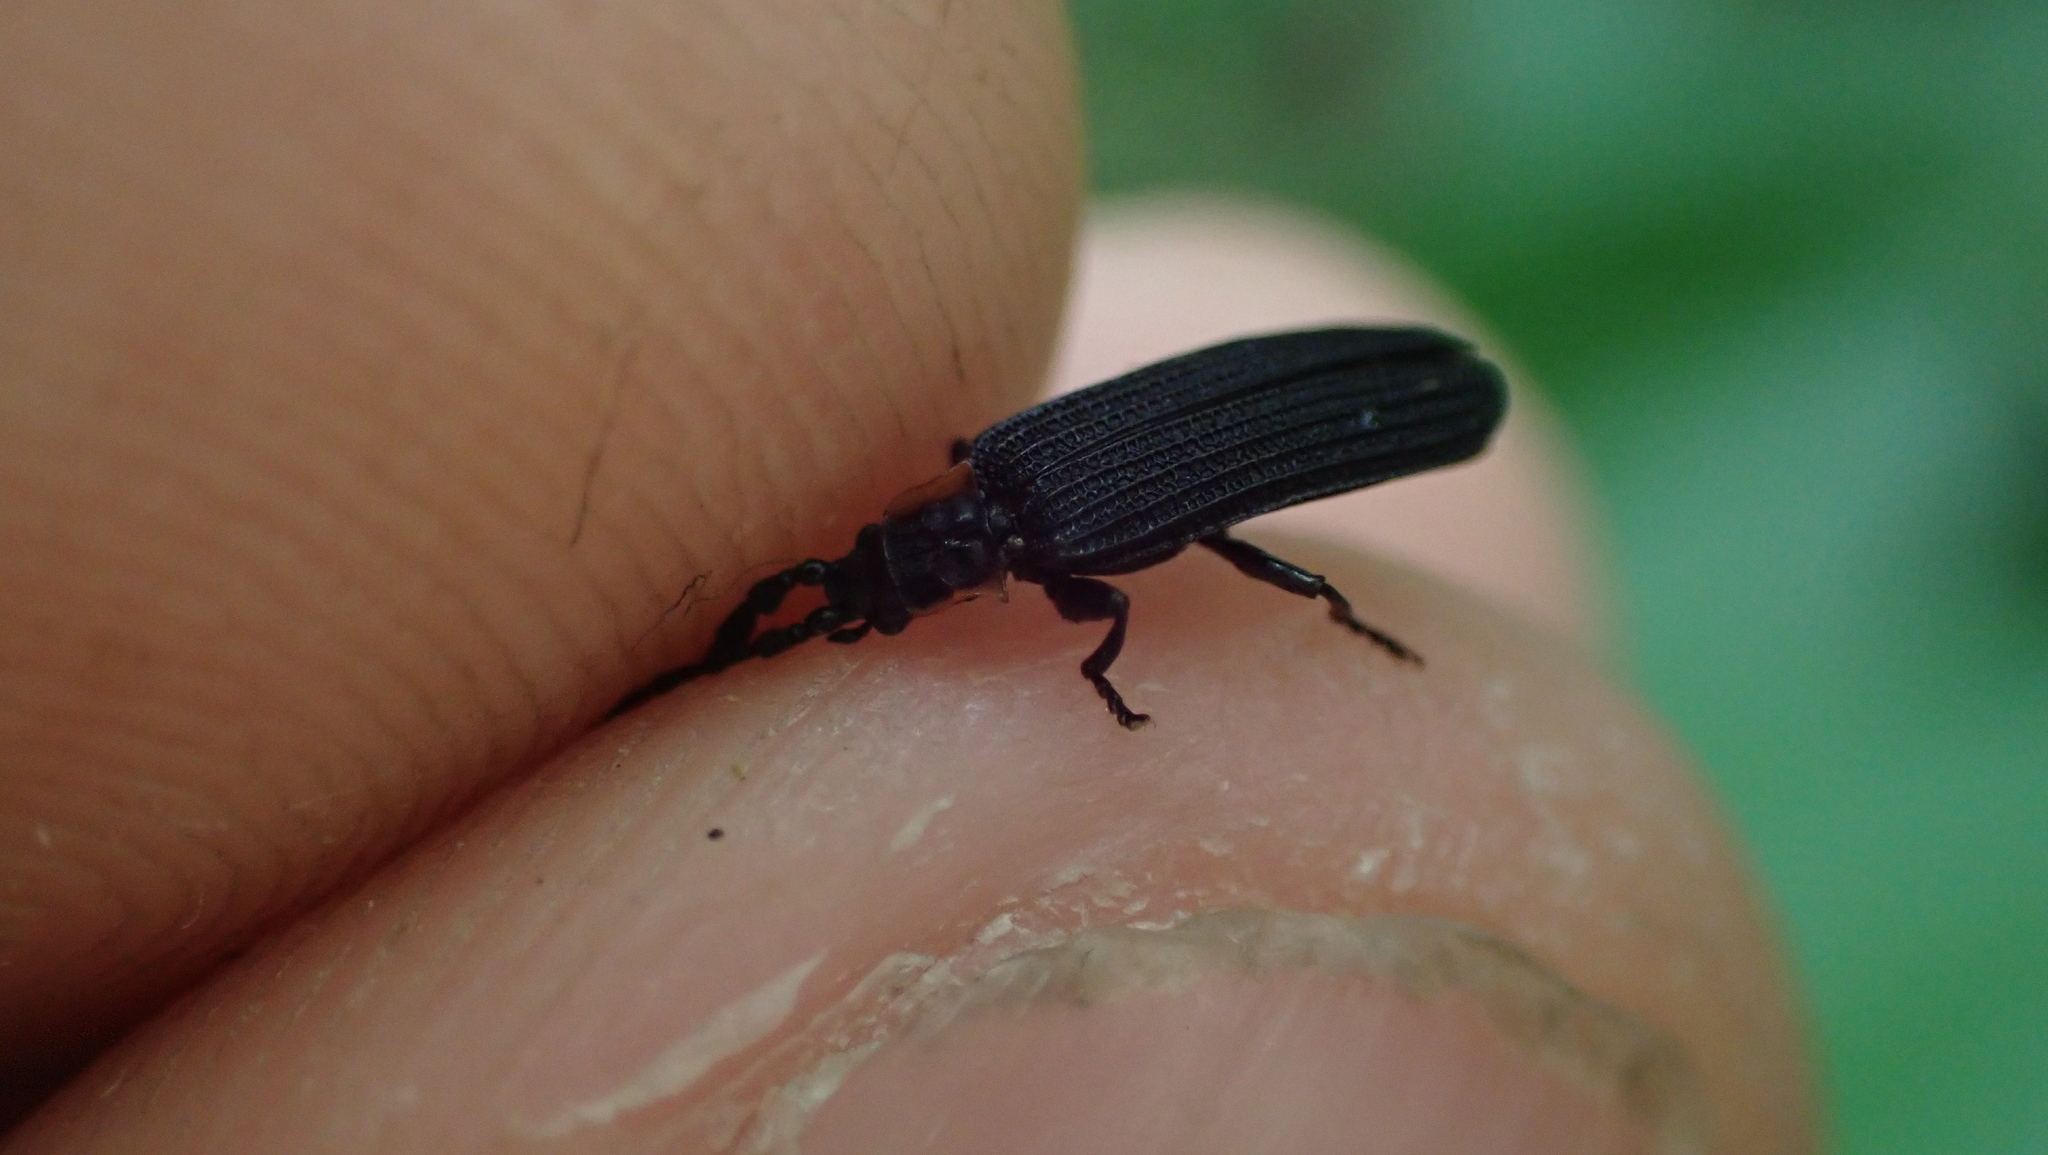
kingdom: Animalia
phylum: Arthropoda
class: Insecta
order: Coleoptera
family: Lycidae
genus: Erotides
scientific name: Erotides sculptilis
